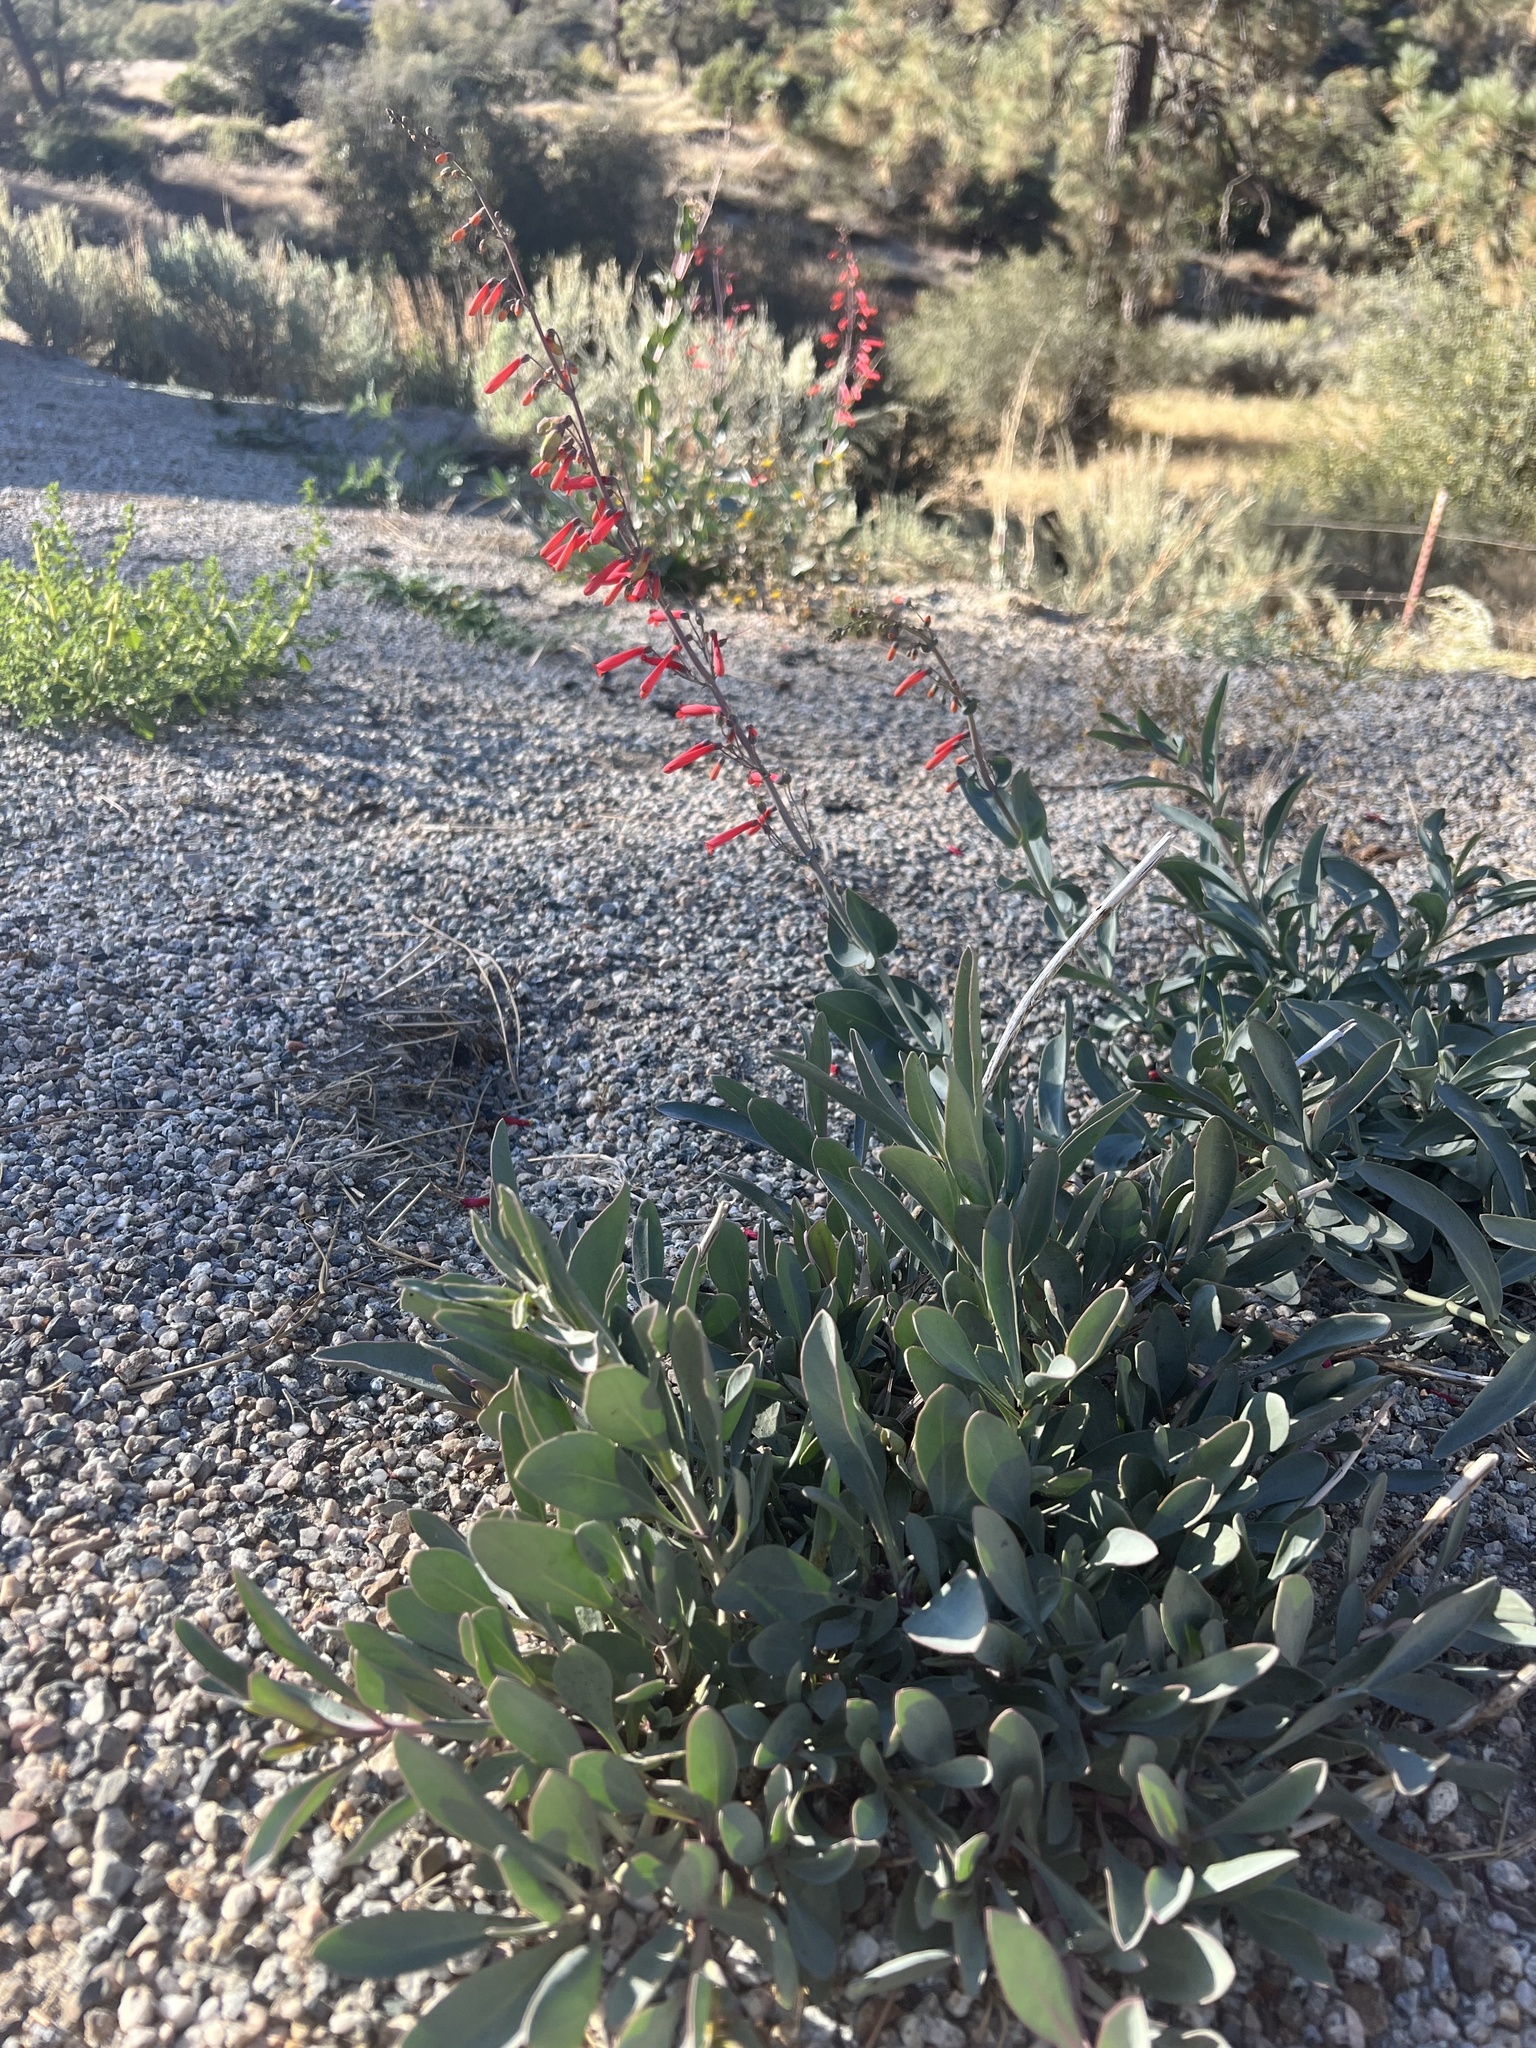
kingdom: Plantae
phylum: Tracheophyta
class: Magnoliopsida
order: Lamiales
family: Plantaginaceae
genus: Penstemon
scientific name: Penstemon centranthifolius
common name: Scarlet bugler
